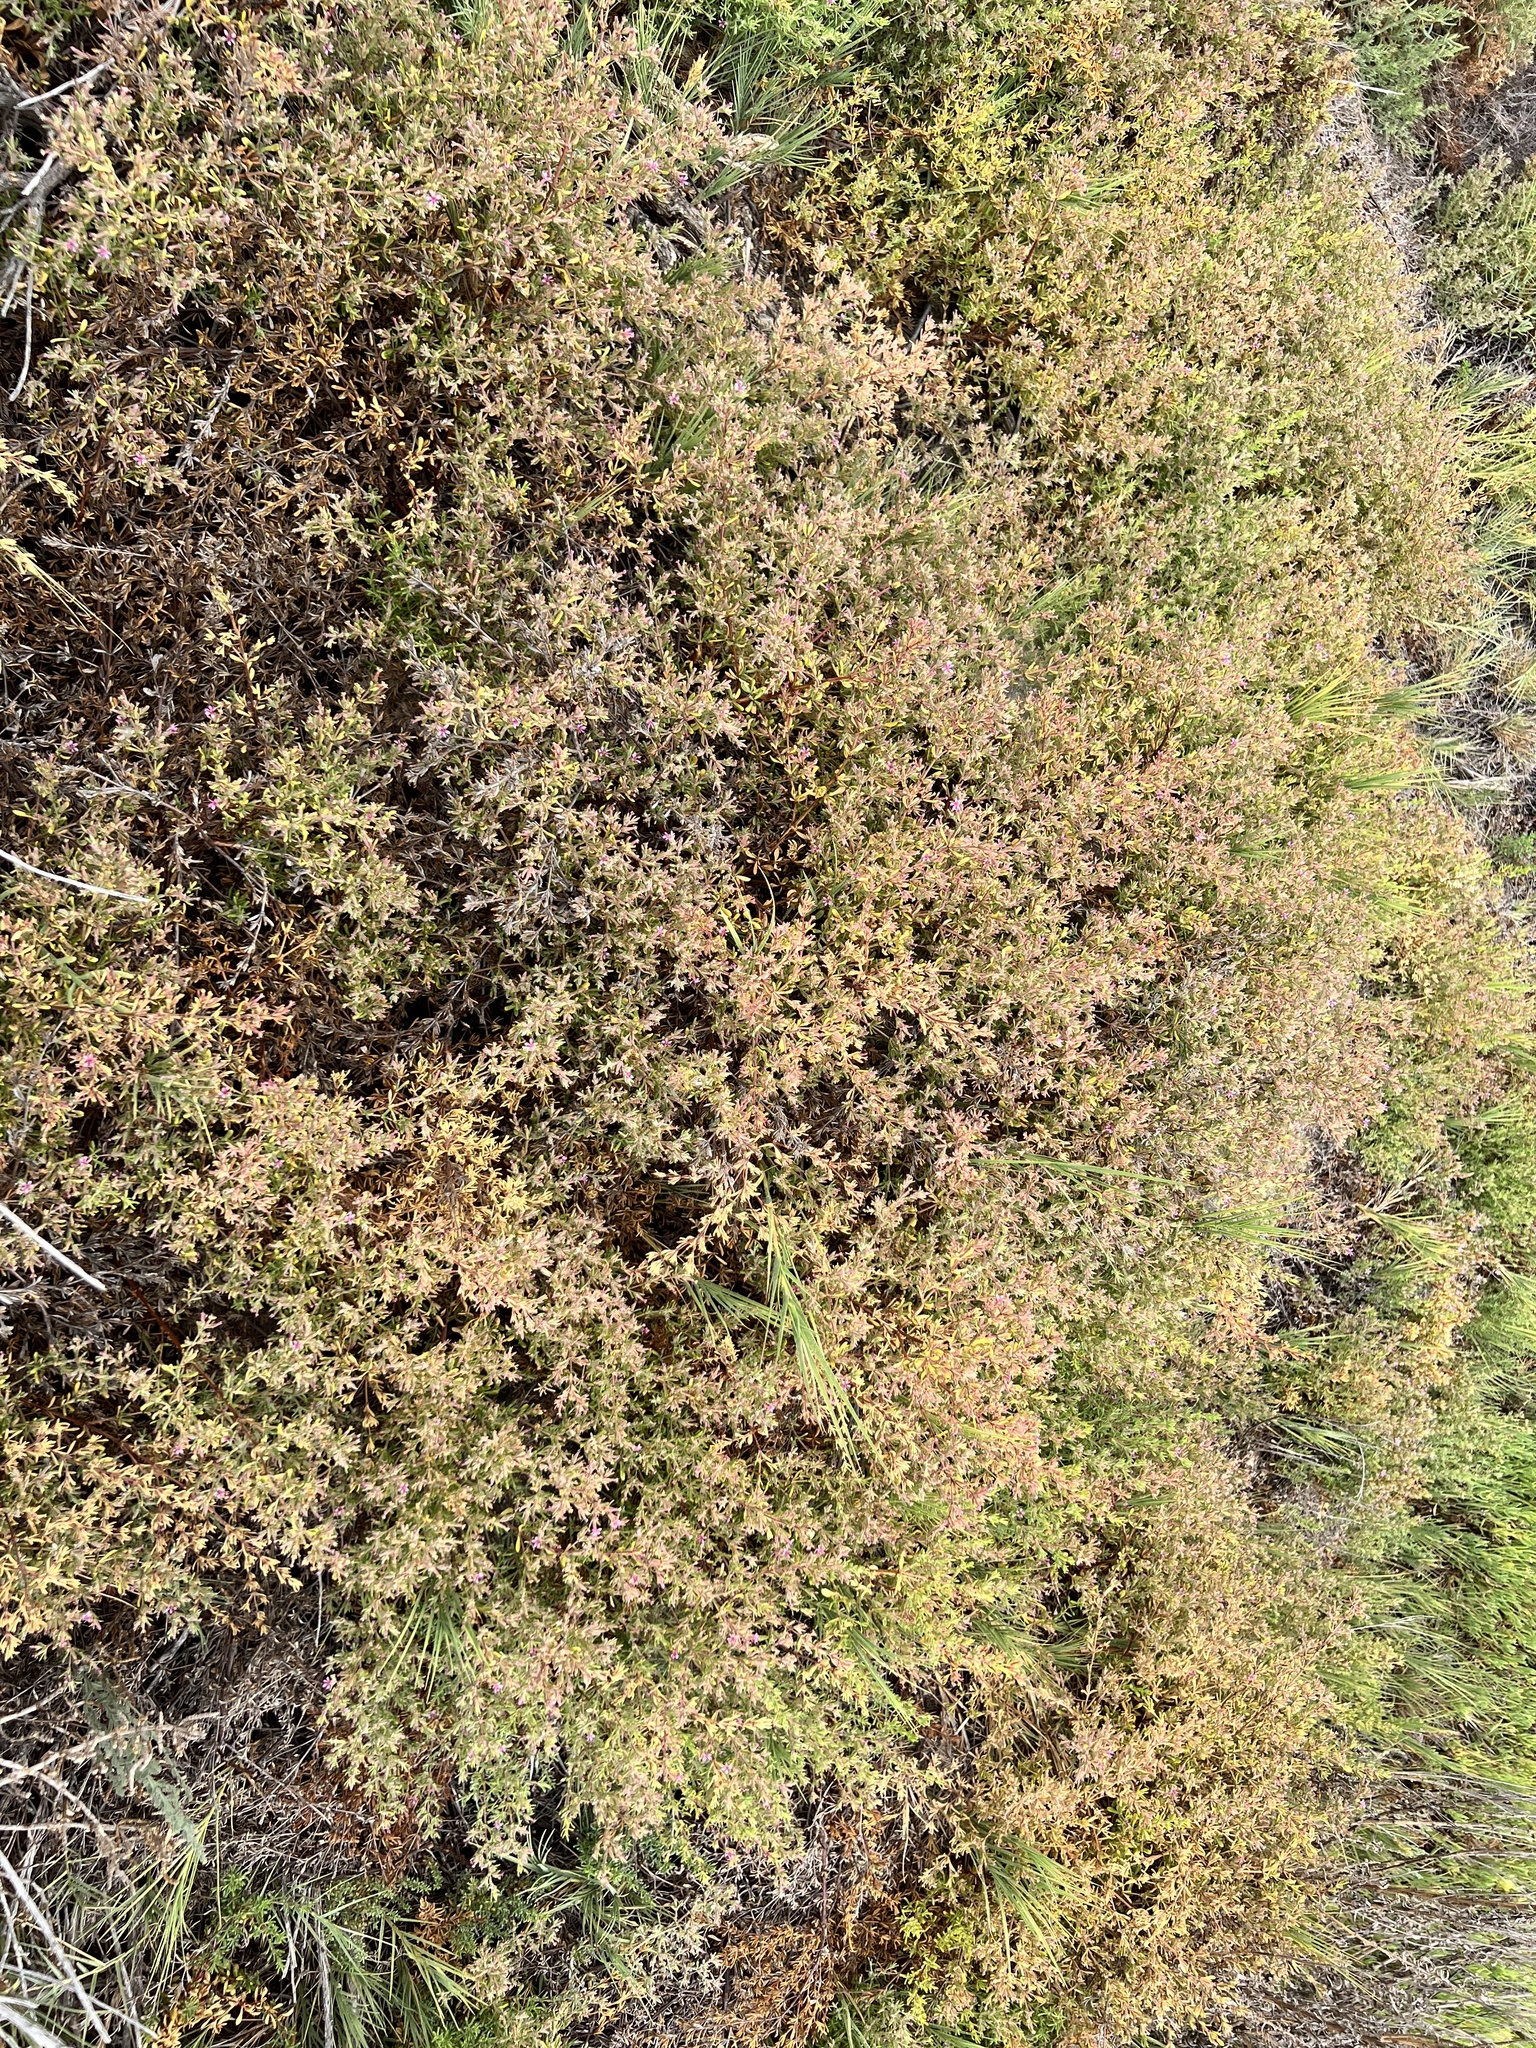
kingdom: Plantae
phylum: Tracheophyta
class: Magnoliopsida
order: Caryophyllales
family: Frankeniaceae
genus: Frankenia
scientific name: Frankenia salina
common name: Alkali seaheath
